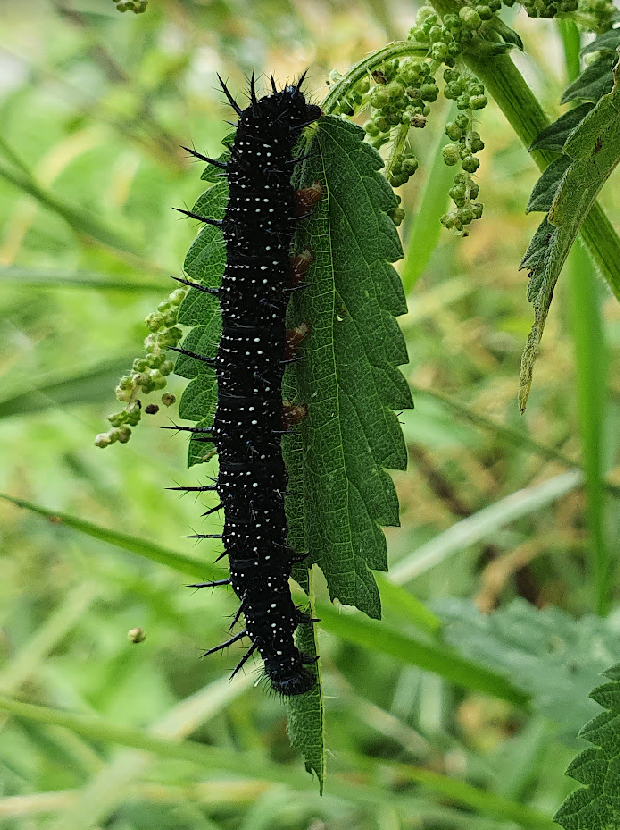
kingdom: Animalia
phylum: Arthropoda
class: Insecta
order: Lepidoptera
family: Nymphalidae
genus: Aglais
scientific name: Aglais io
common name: Peacock
